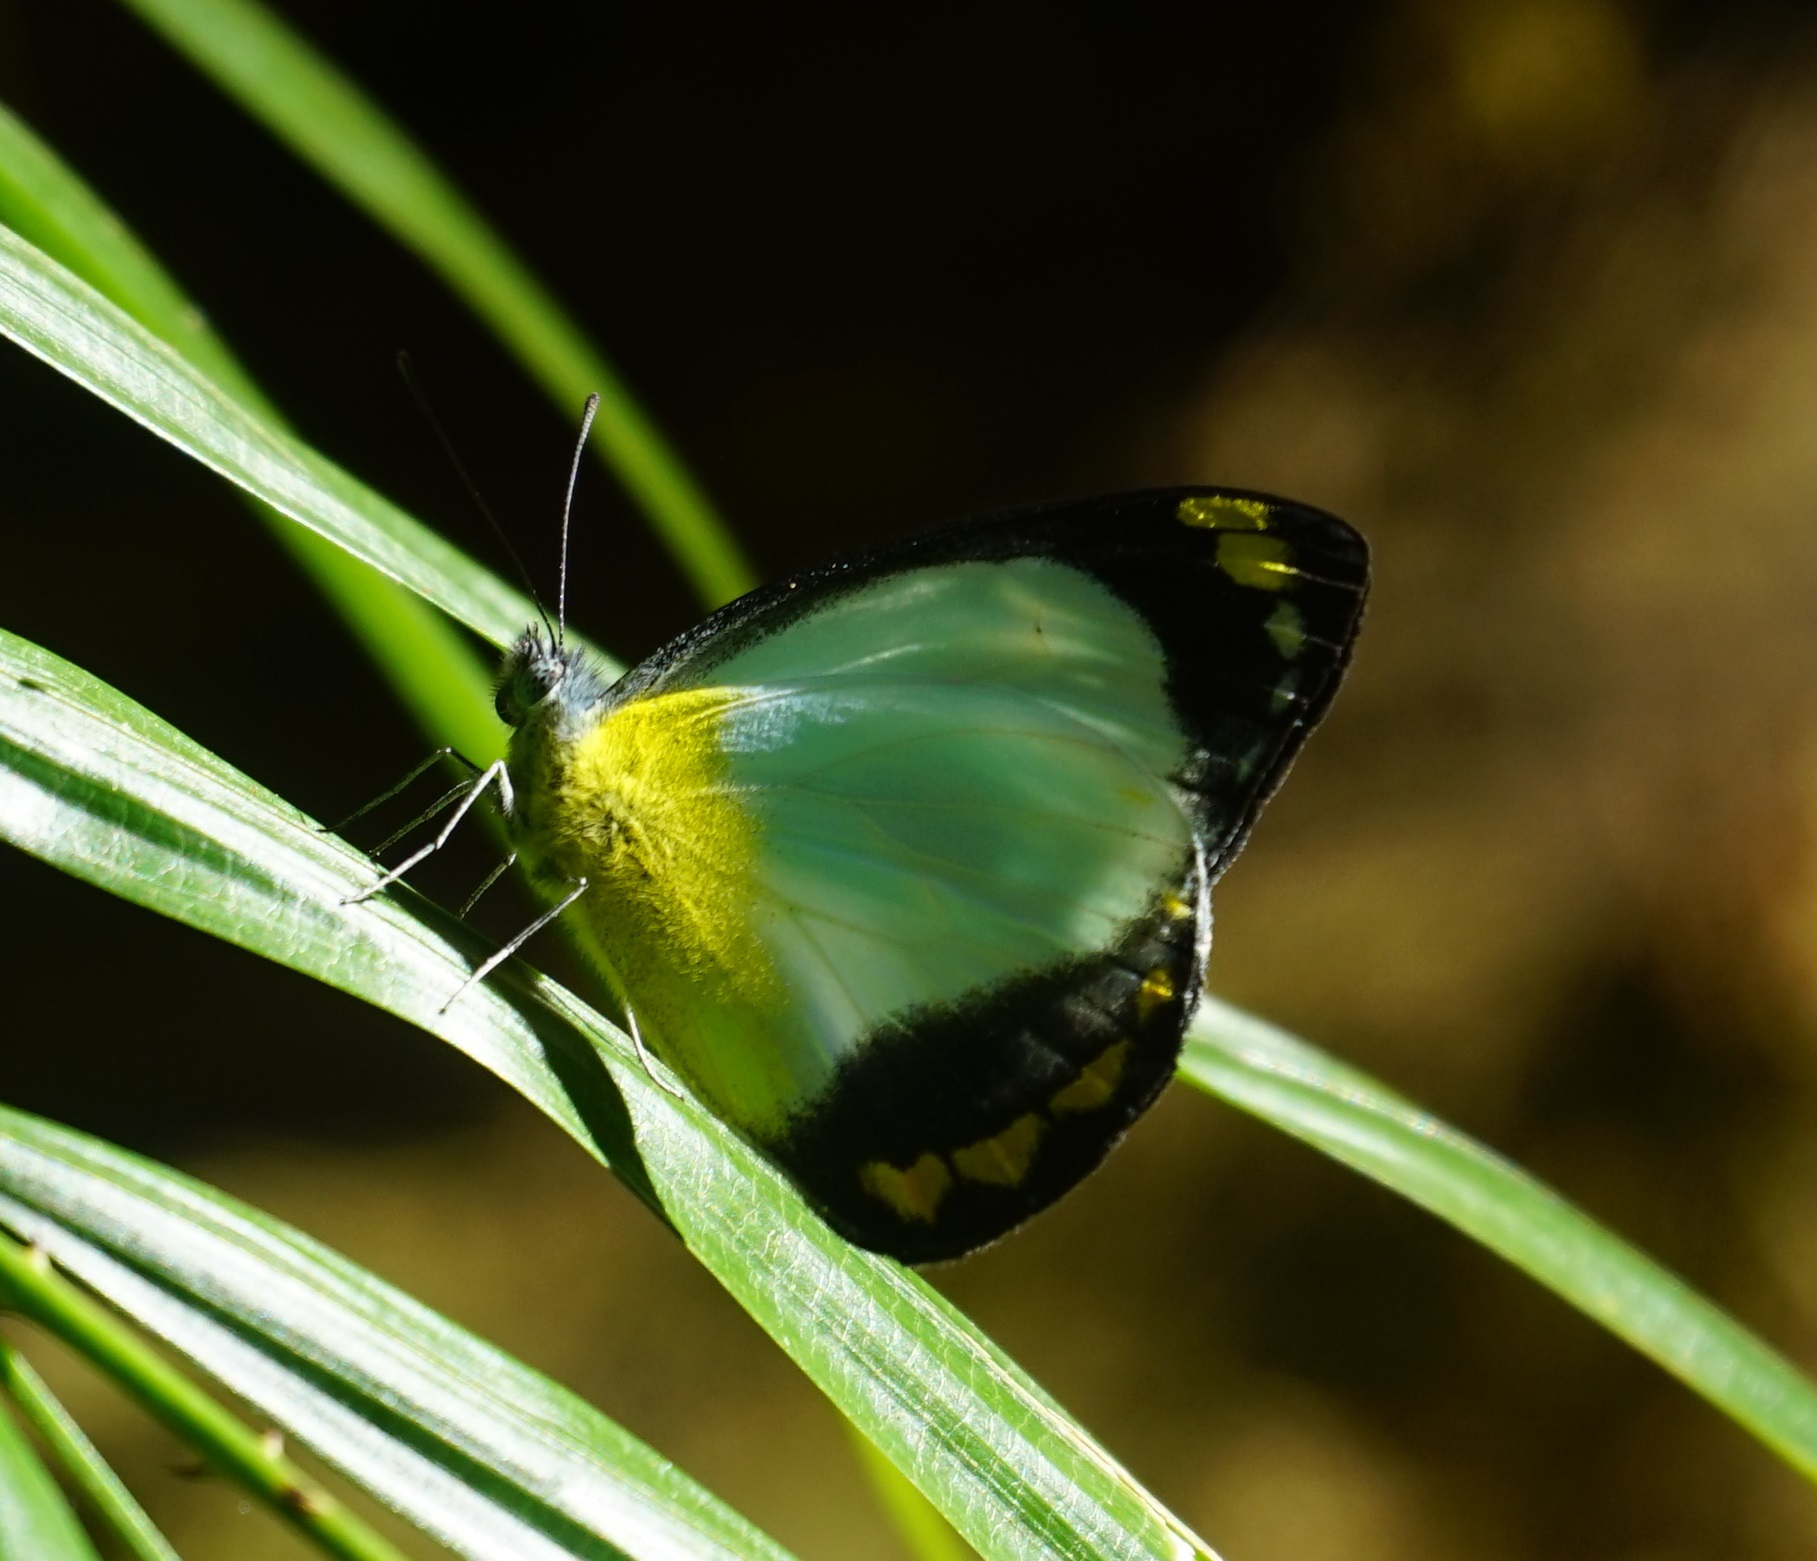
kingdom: Animalia
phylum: Arthropoda
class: Insecta
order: Lepidoptera
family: Pieridae
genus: Delias
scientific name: Delias ennia
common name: Yellow-banded jezebel
